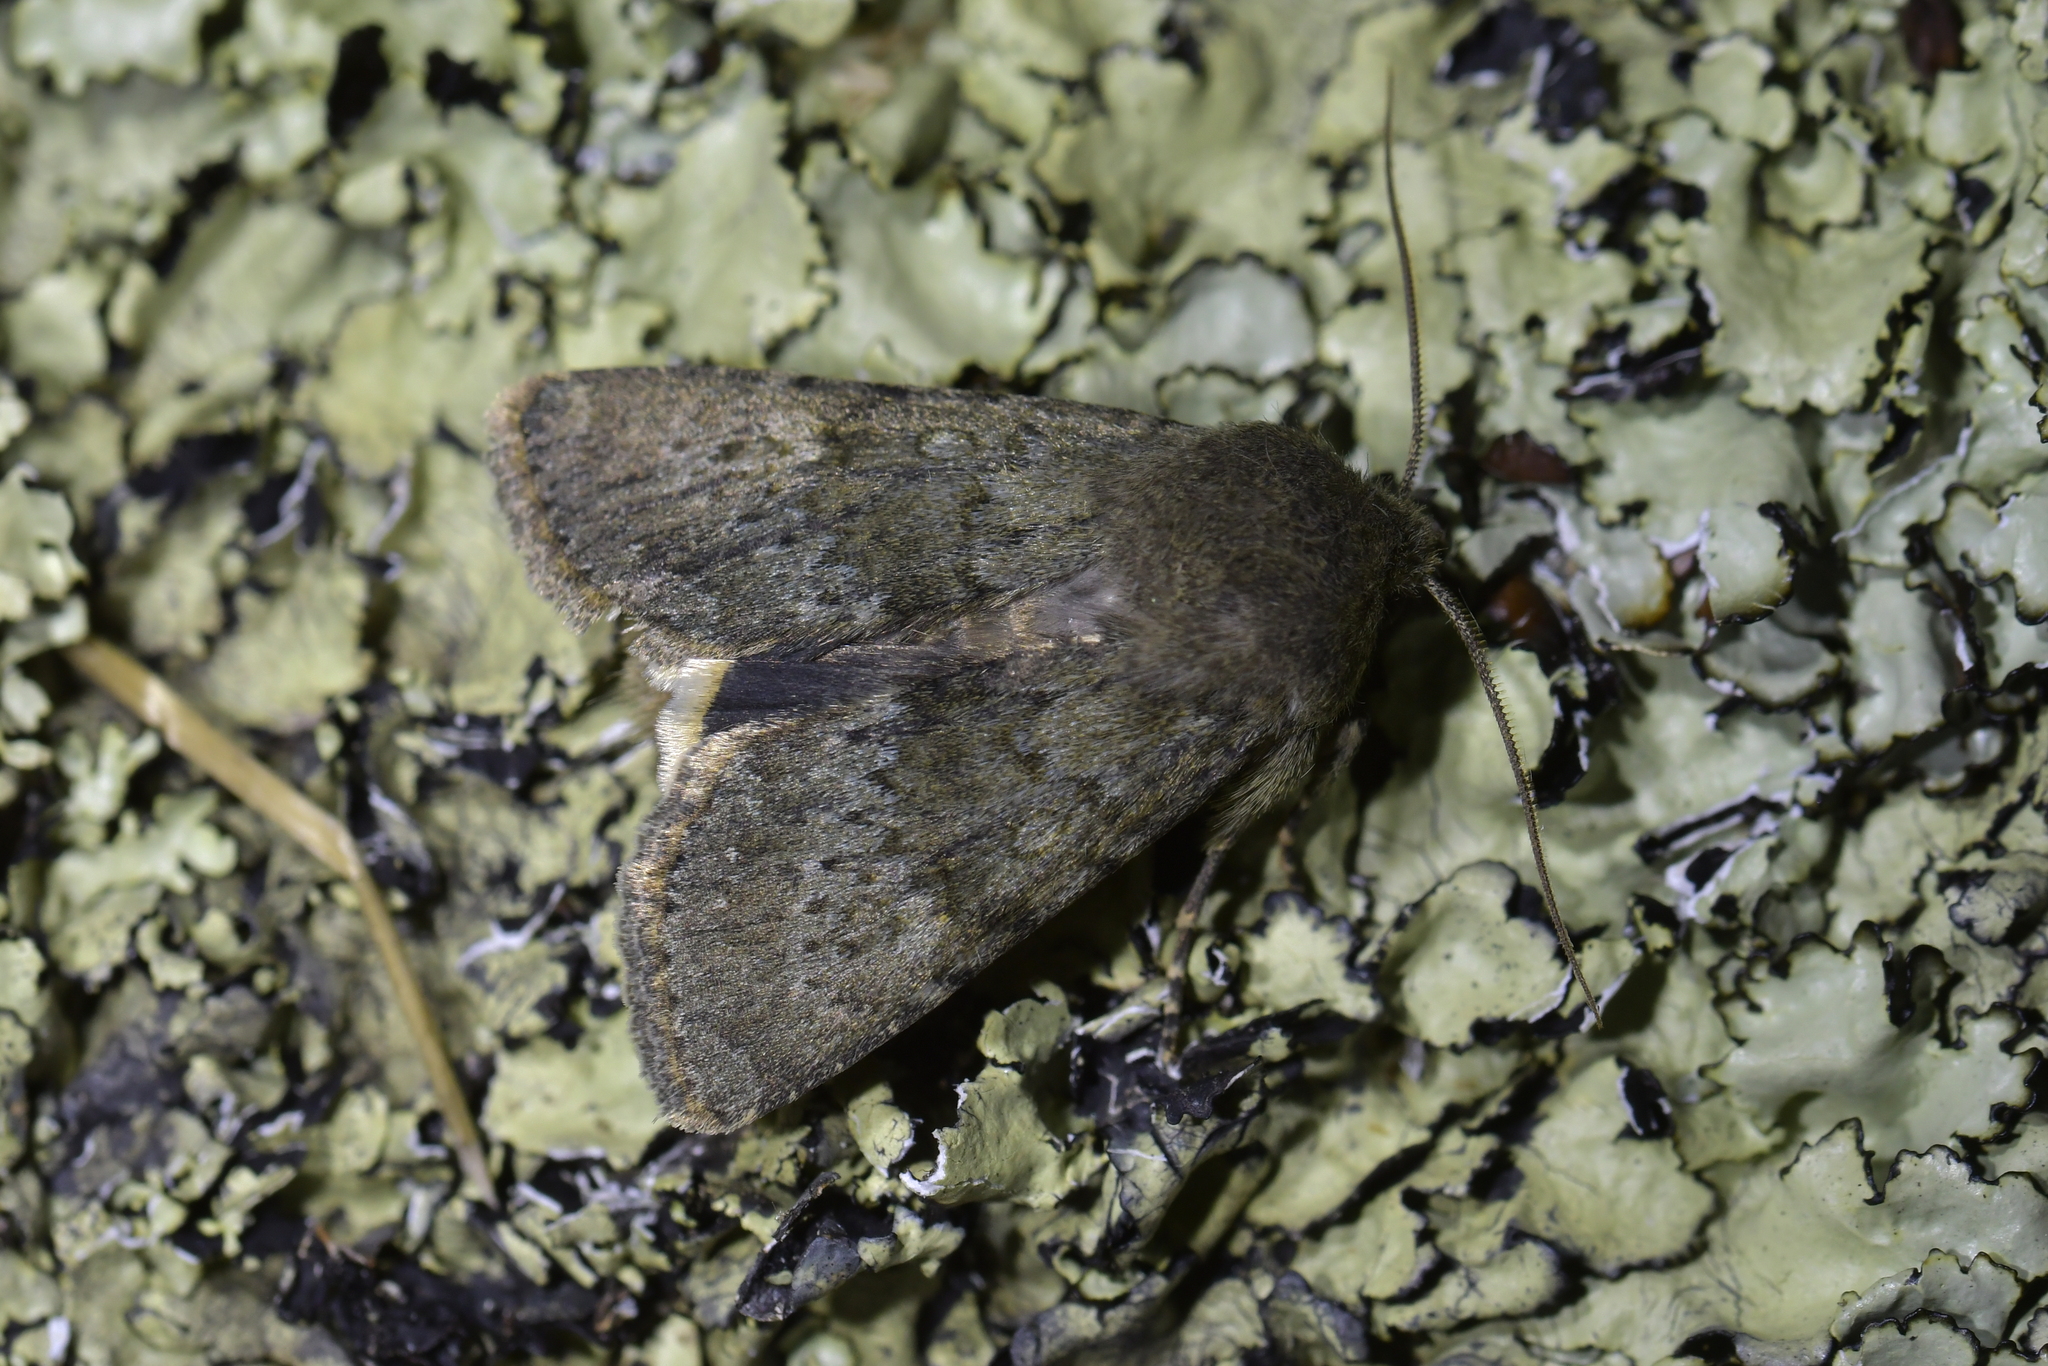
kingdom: Animalia
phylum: Arthropoda
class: Insecta
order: Lepidoptera
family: Noctuidae
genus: Ichneutica
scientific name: Ichneutica moderata
